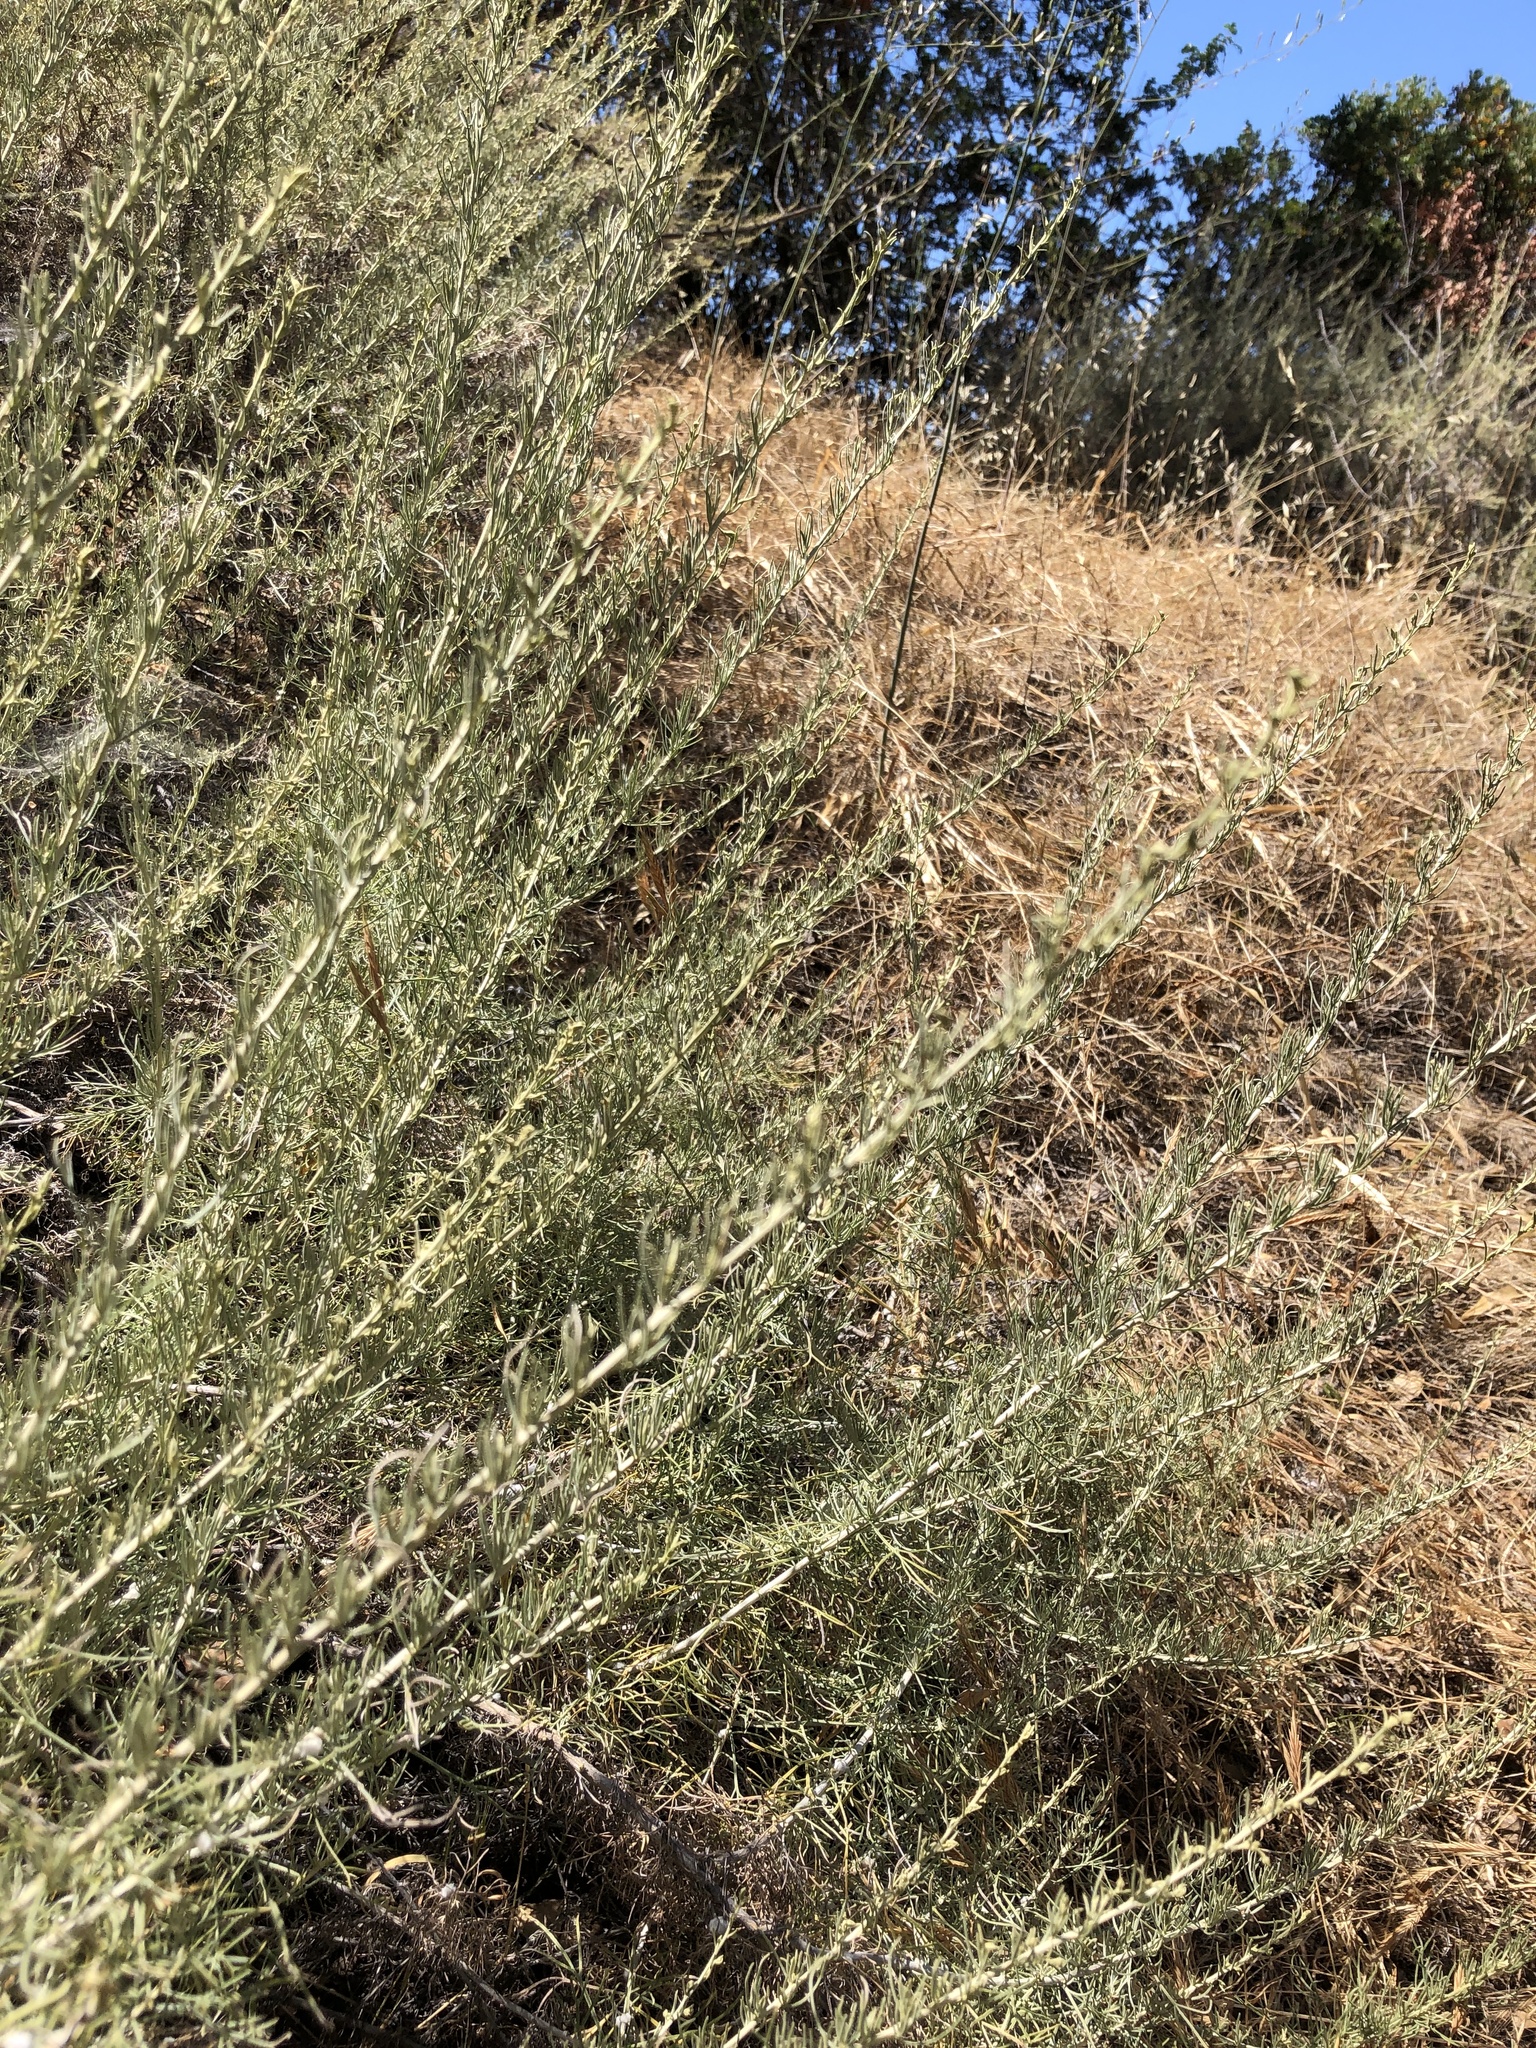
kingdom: Plantae
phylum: Tracheophyta
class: Magnoliopsida
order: Asterales
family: Asteraceae
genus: Artemisia
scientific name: Artemisia californica
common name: California sagebrush
